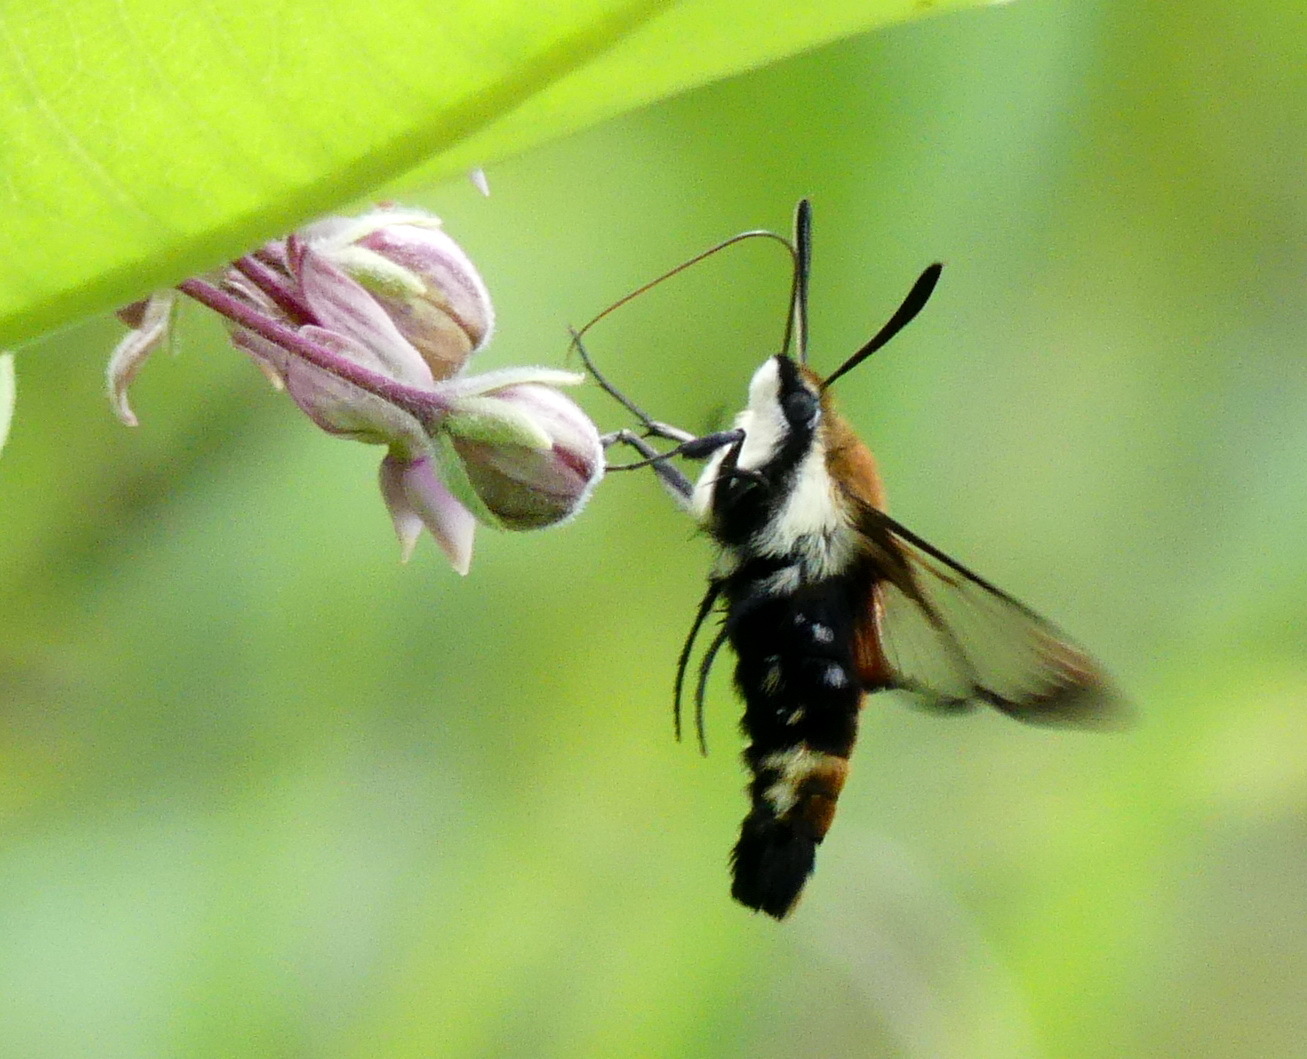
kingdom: Animalia
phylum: Arthropoda
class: Insecta
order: Lepidoptera
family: Sphingidae
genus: Hemaris
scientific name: Hemaris diffinis
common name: Bumblebee moth
